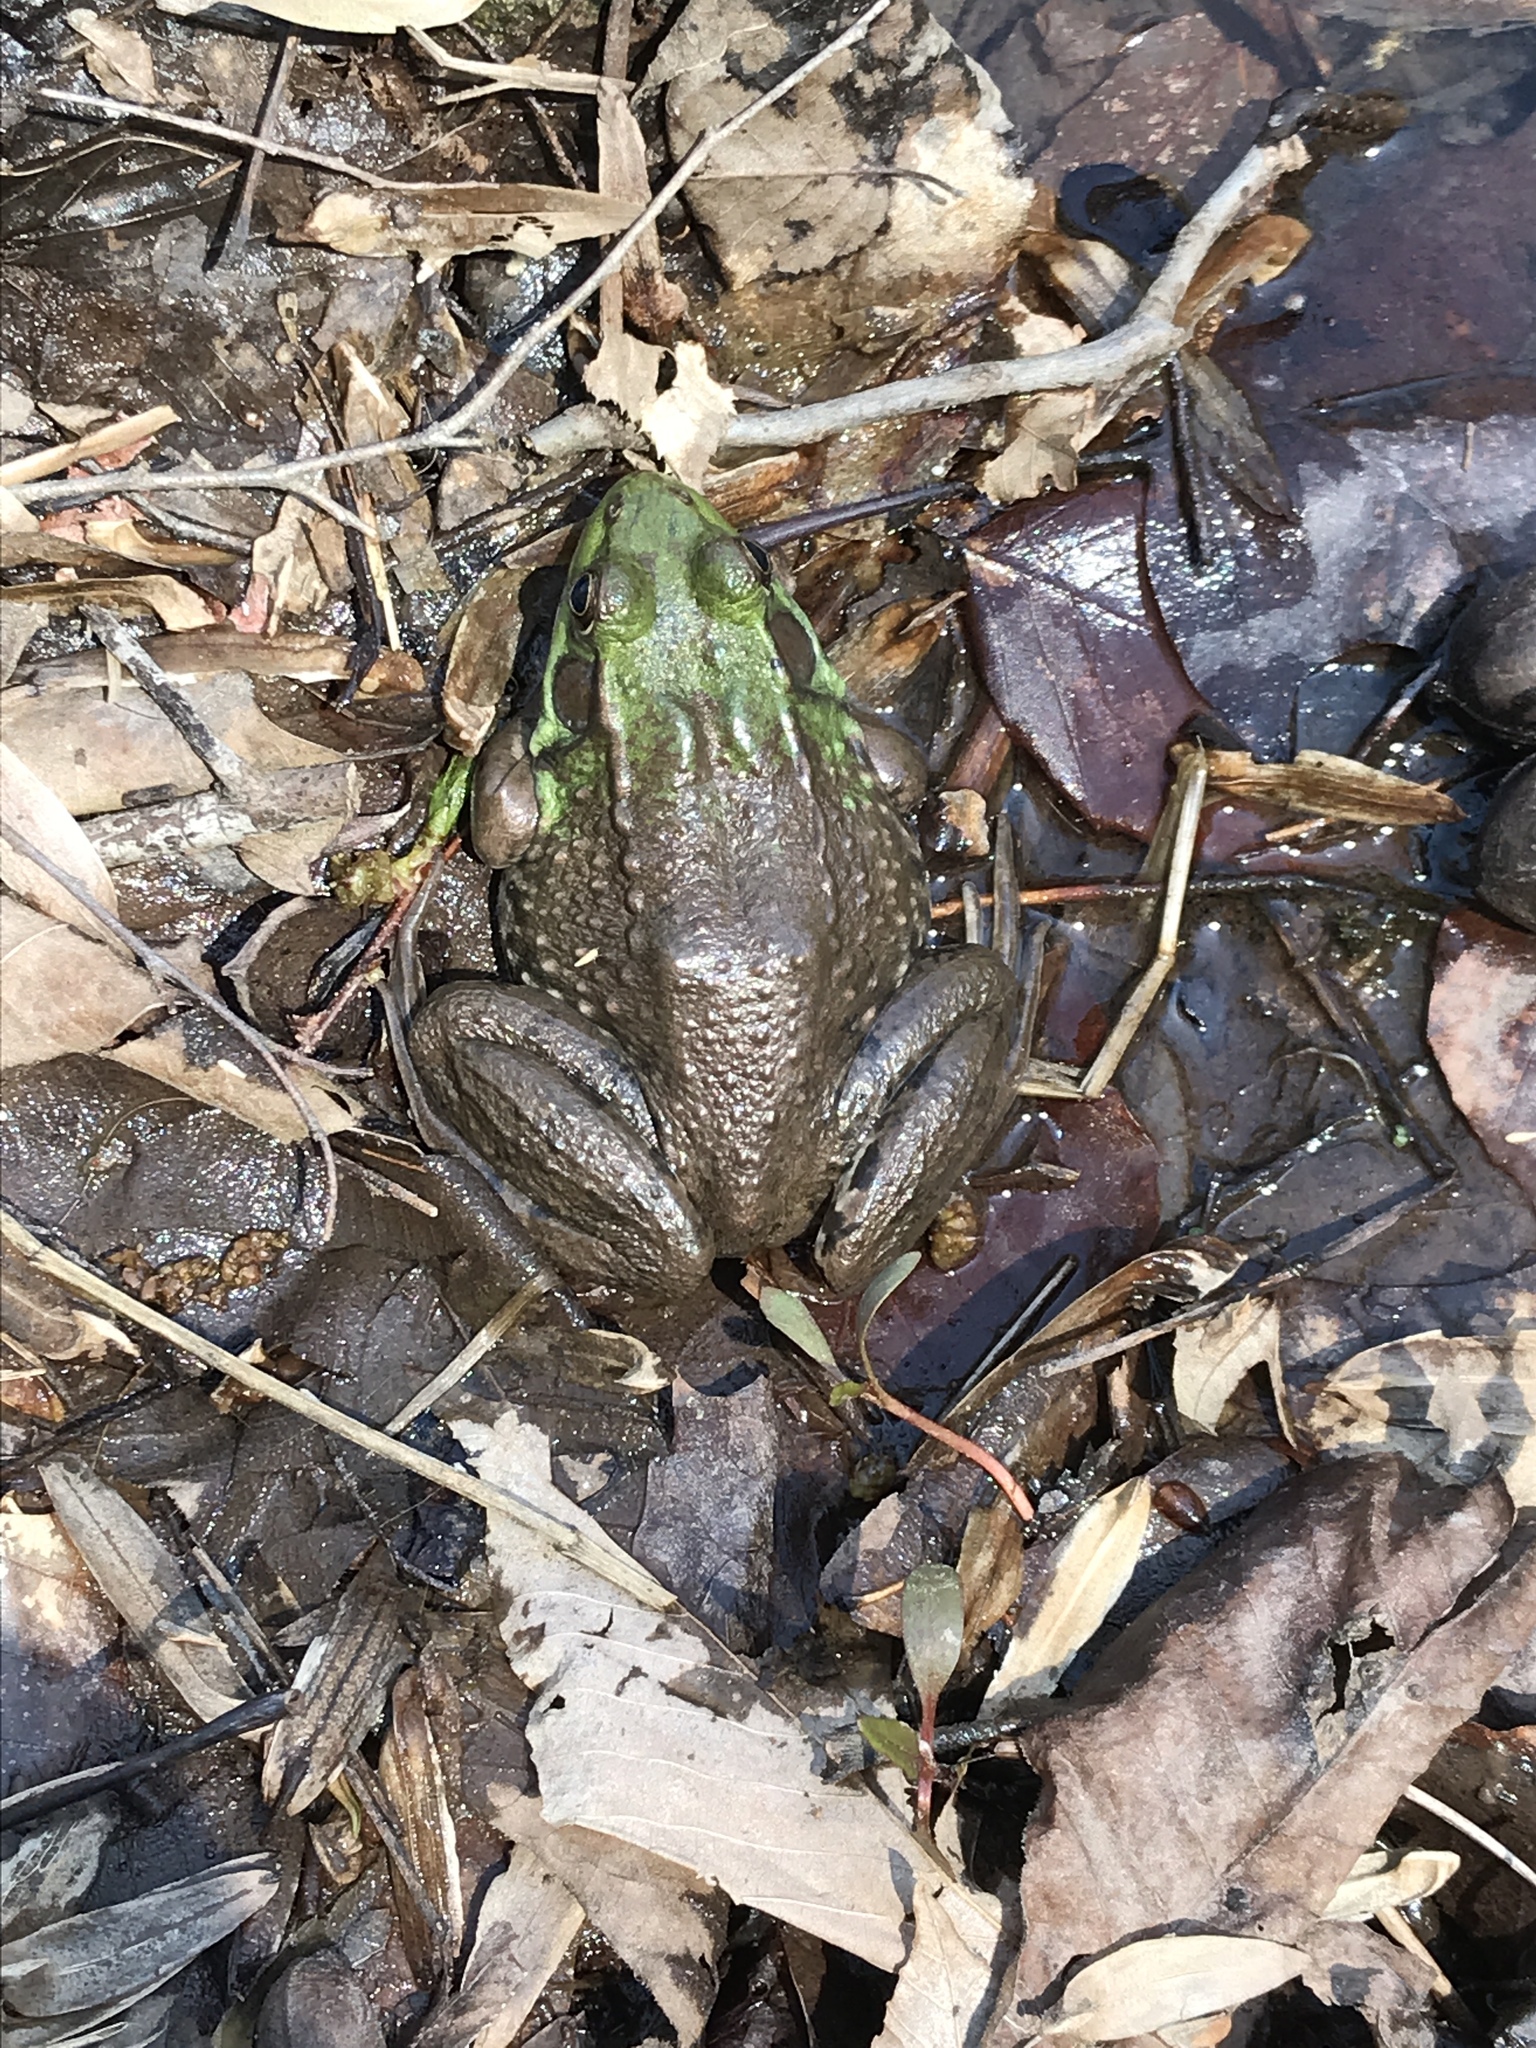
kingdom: Animalia
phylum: Chordata
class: Amphibia
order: Anura
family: Ranidae
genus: Lithobates
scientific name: Lithobates clamitans
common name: Green frog
